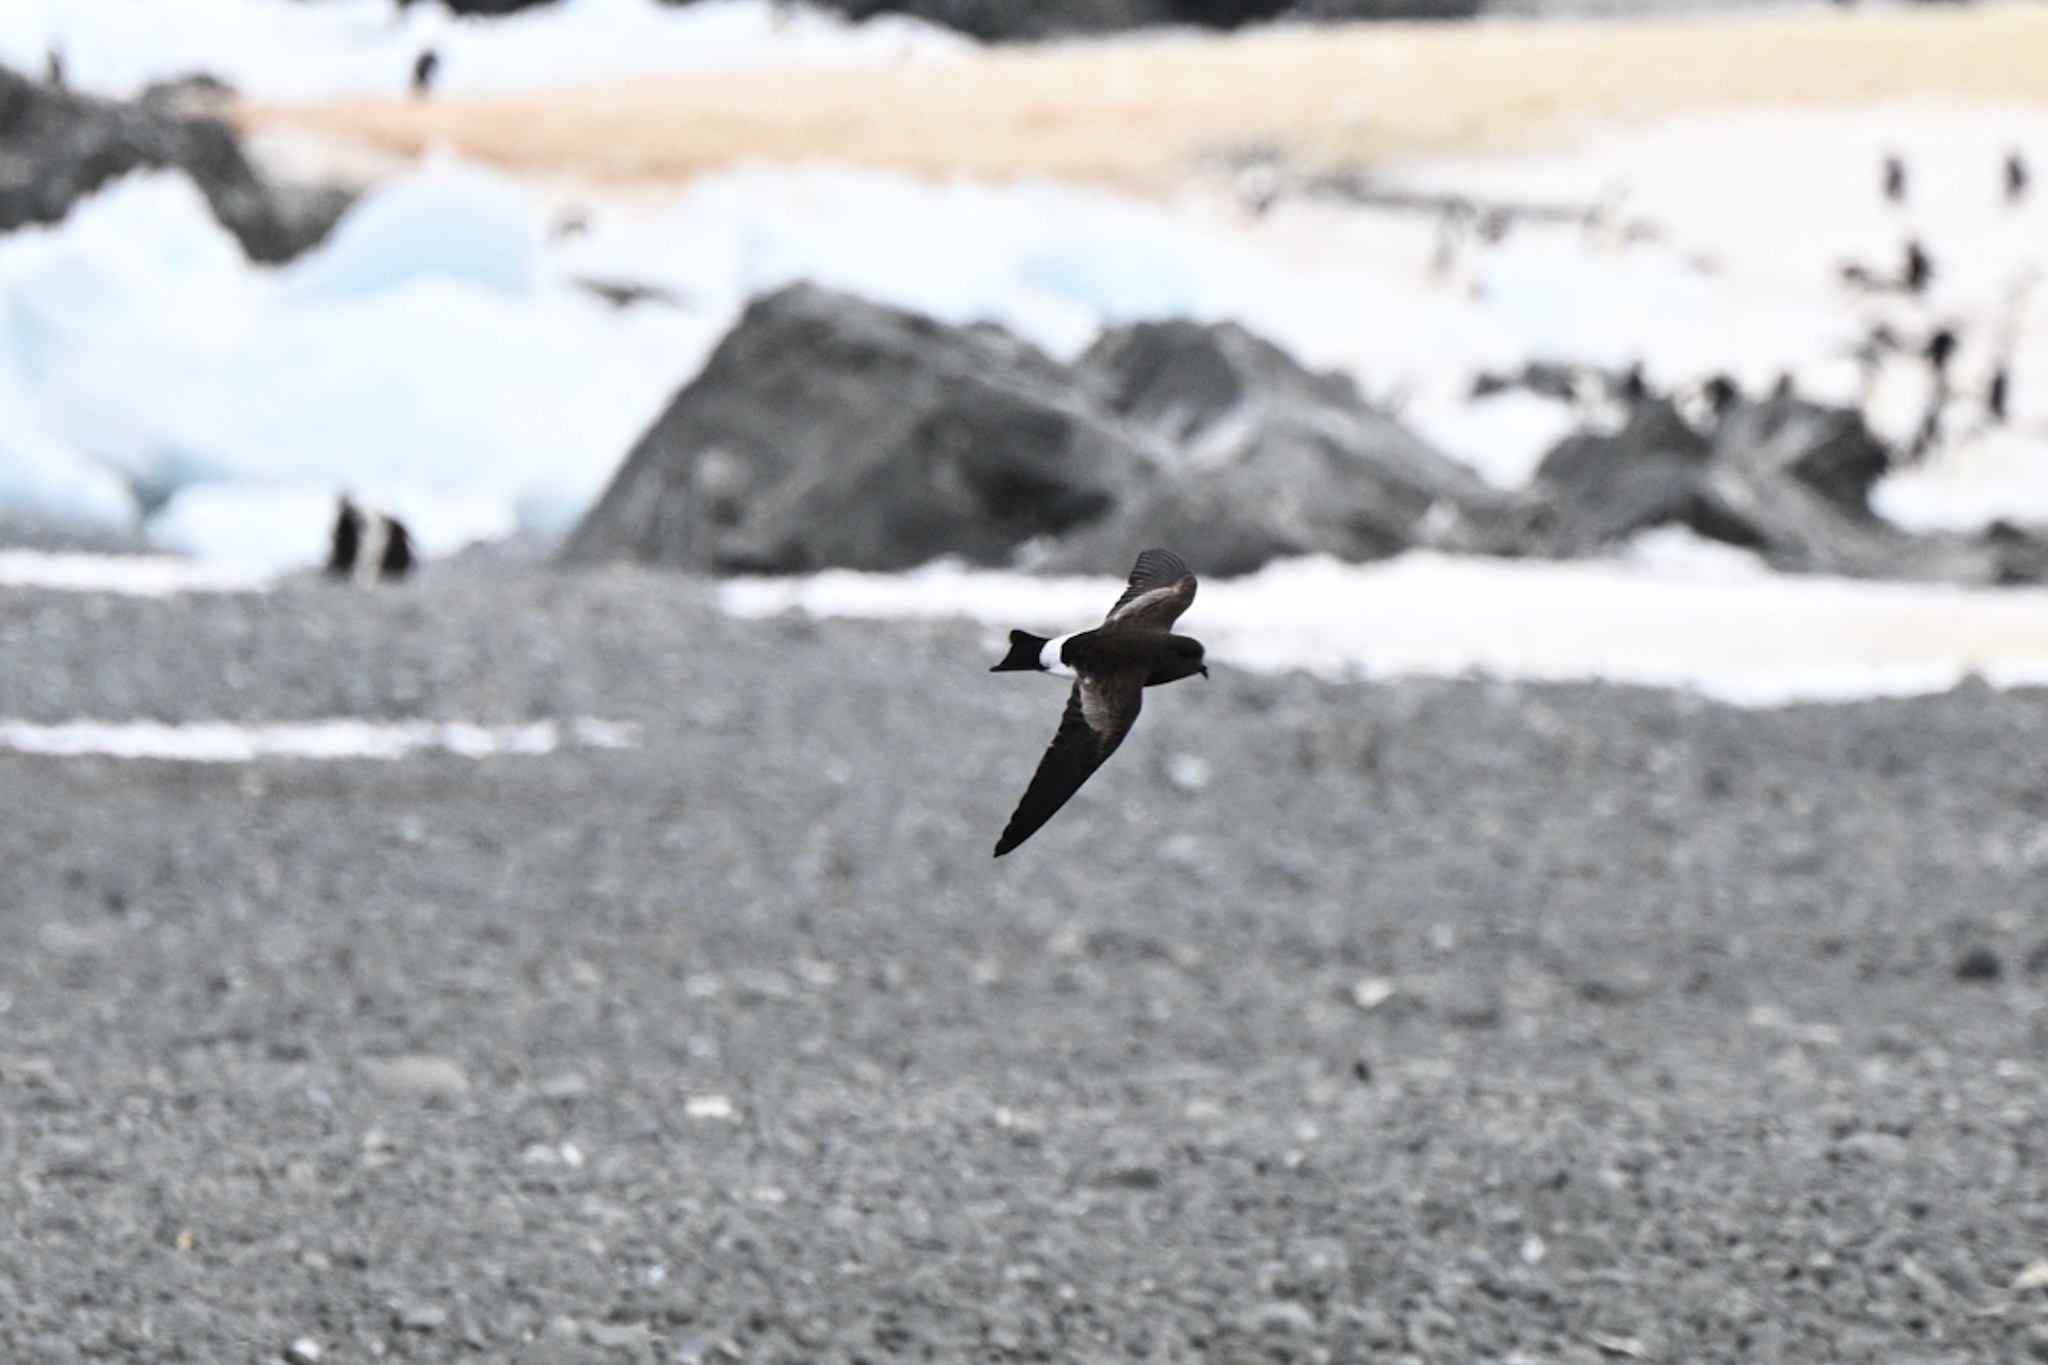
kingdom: Animalia
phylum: Chordata
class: Aves
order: Procellariiformes
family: Hydrobatidae
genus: Oceanites
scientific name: Oceanites oceanicus
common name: Wilson's storm petrel
